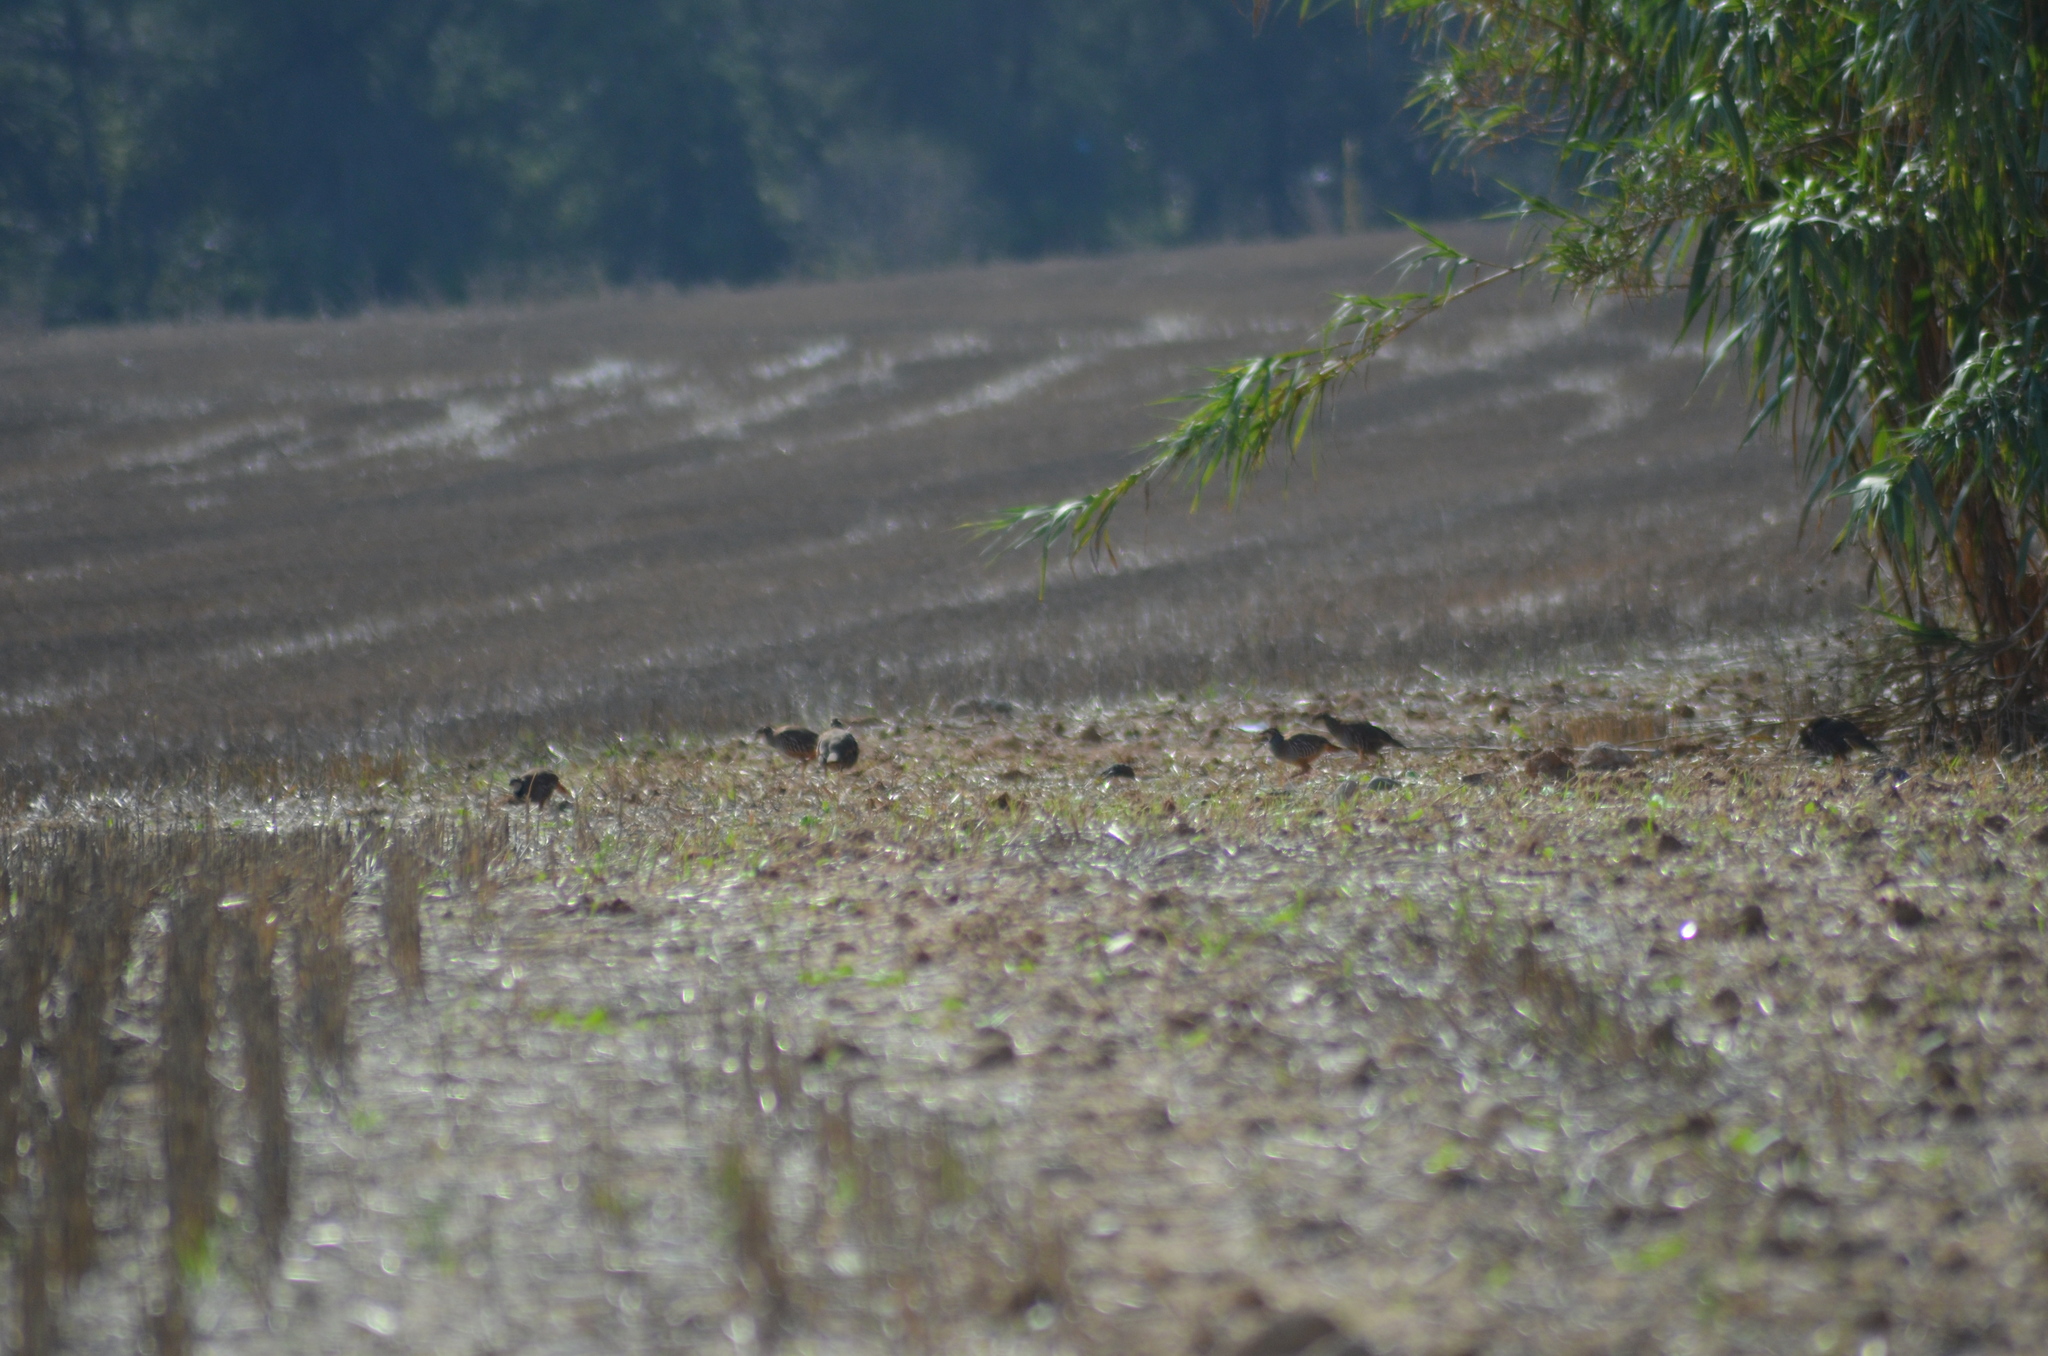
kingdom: Animalia
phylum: Chordata
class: Aves
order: Galliformes
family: Phasianidae
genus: Alectoris
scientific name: Alectoris rufa
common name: Red-legged partridge
